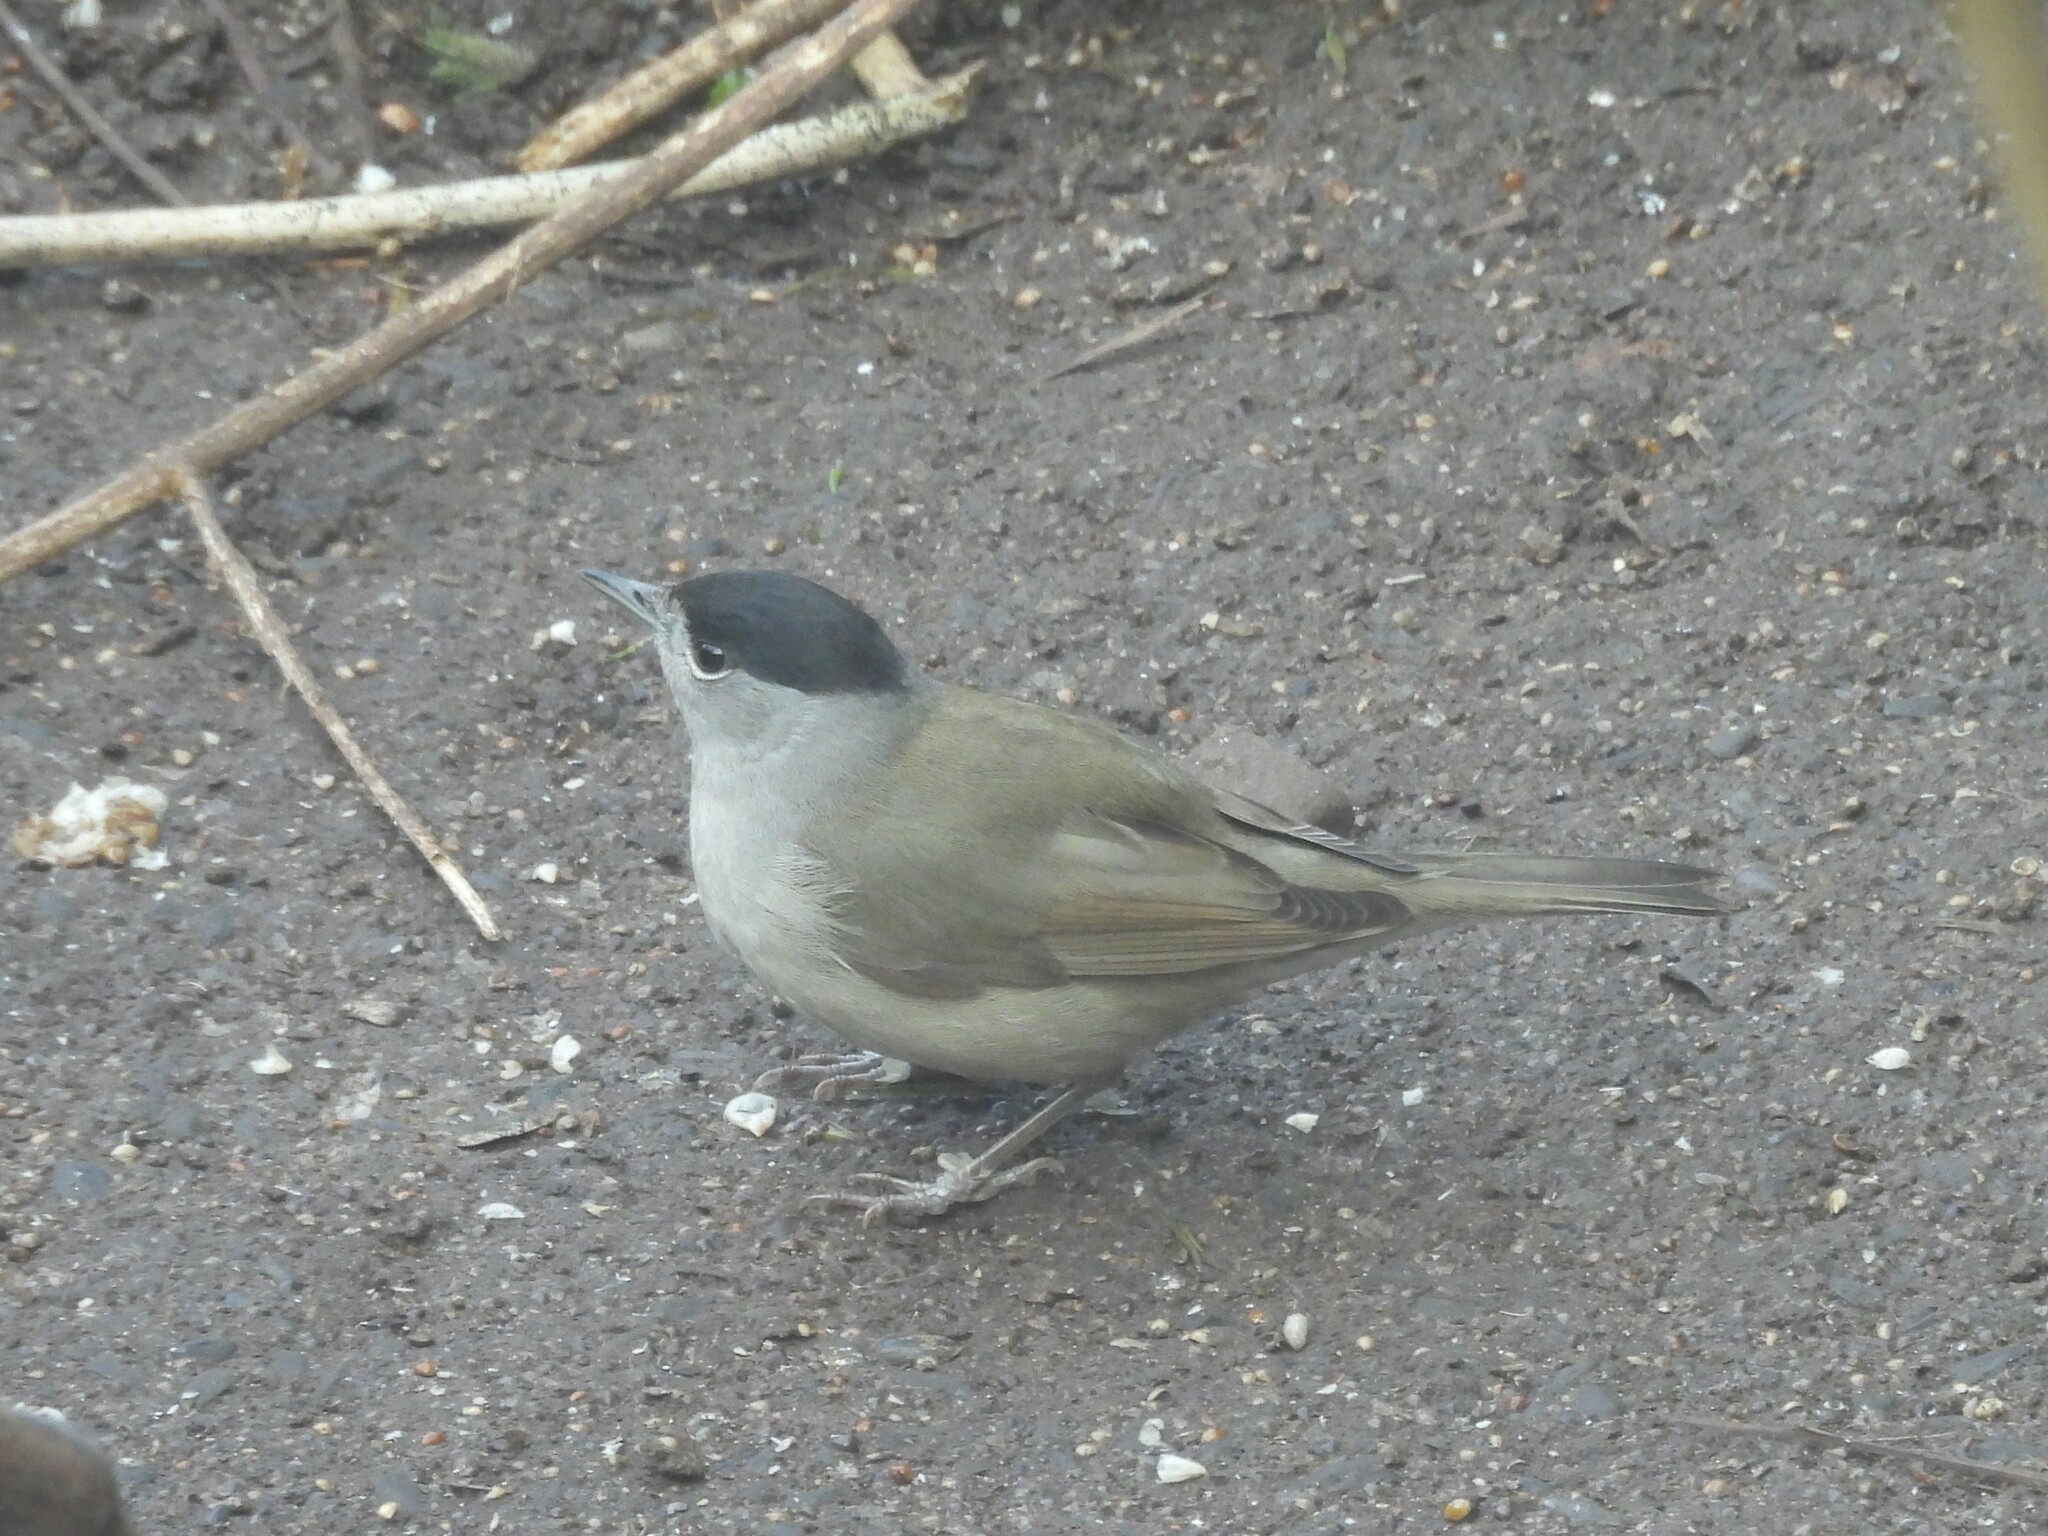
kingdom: Animalia
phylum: Chordata
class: Aves
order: Passeriformes
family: Sylviidae
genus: Sylvia
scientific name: Sylvia atricapilla
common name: Eurasian blackcap
